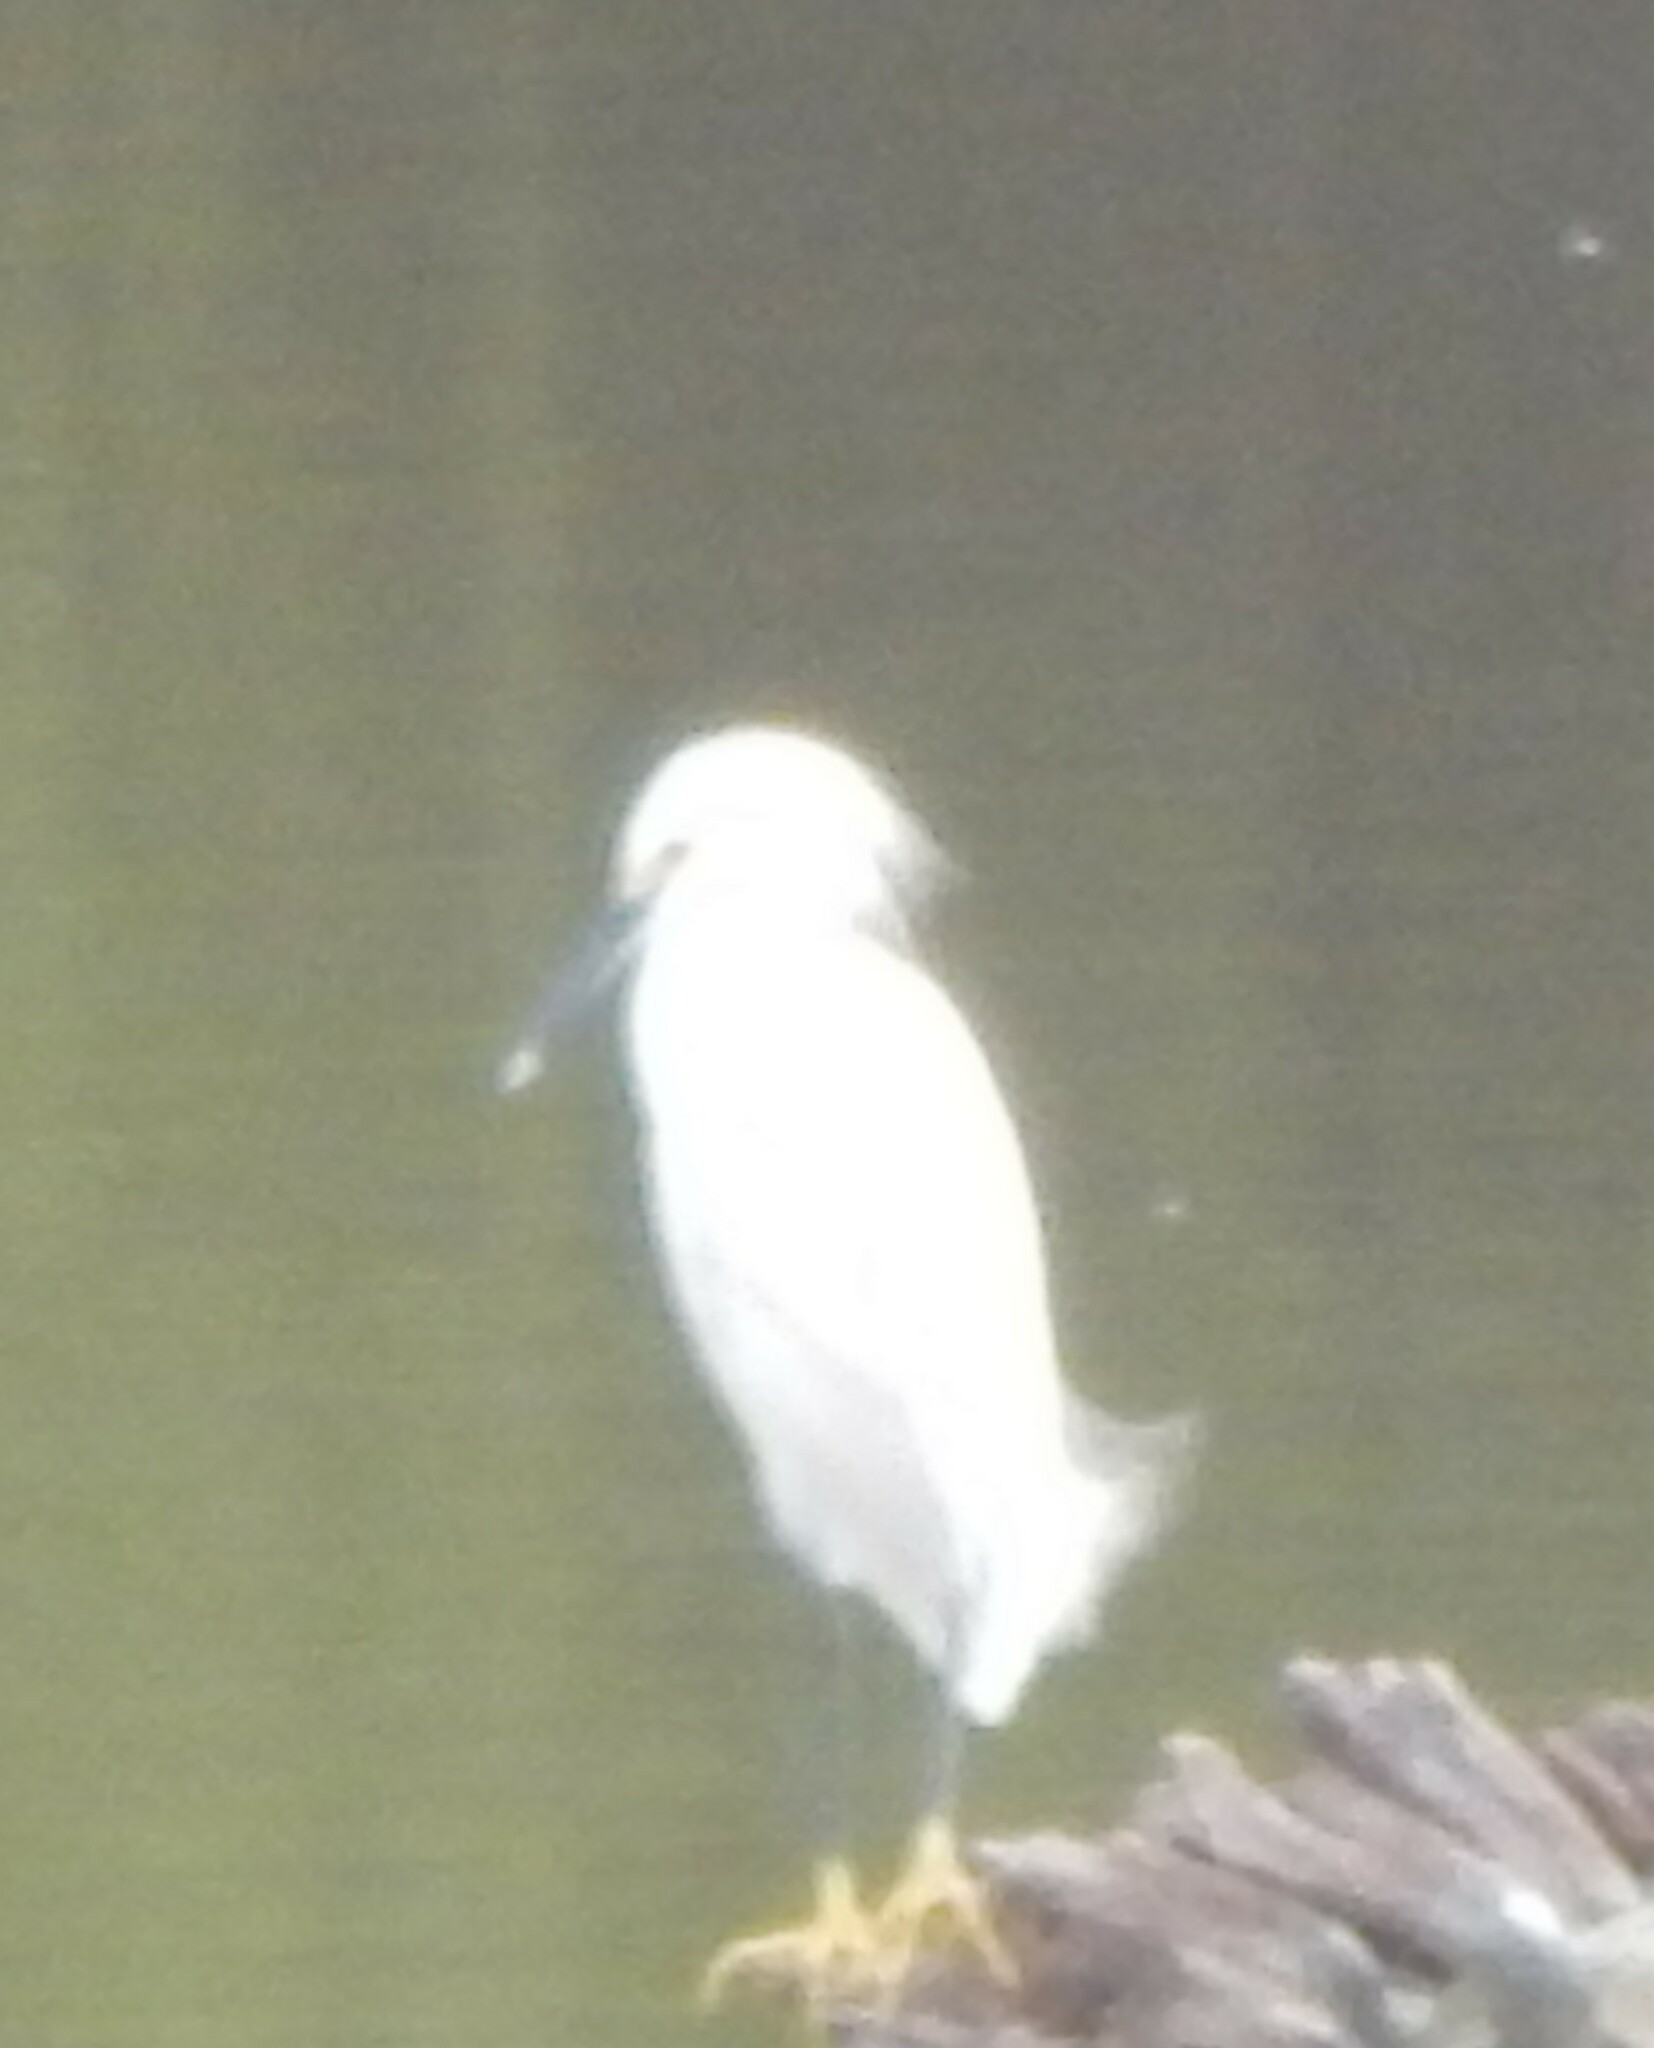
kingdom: Animalia
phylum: Chordata
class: Aves
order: Pelecaniformes
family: Ardeidae
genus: Egretta
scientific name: Egretta thula
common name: Snowy egret
